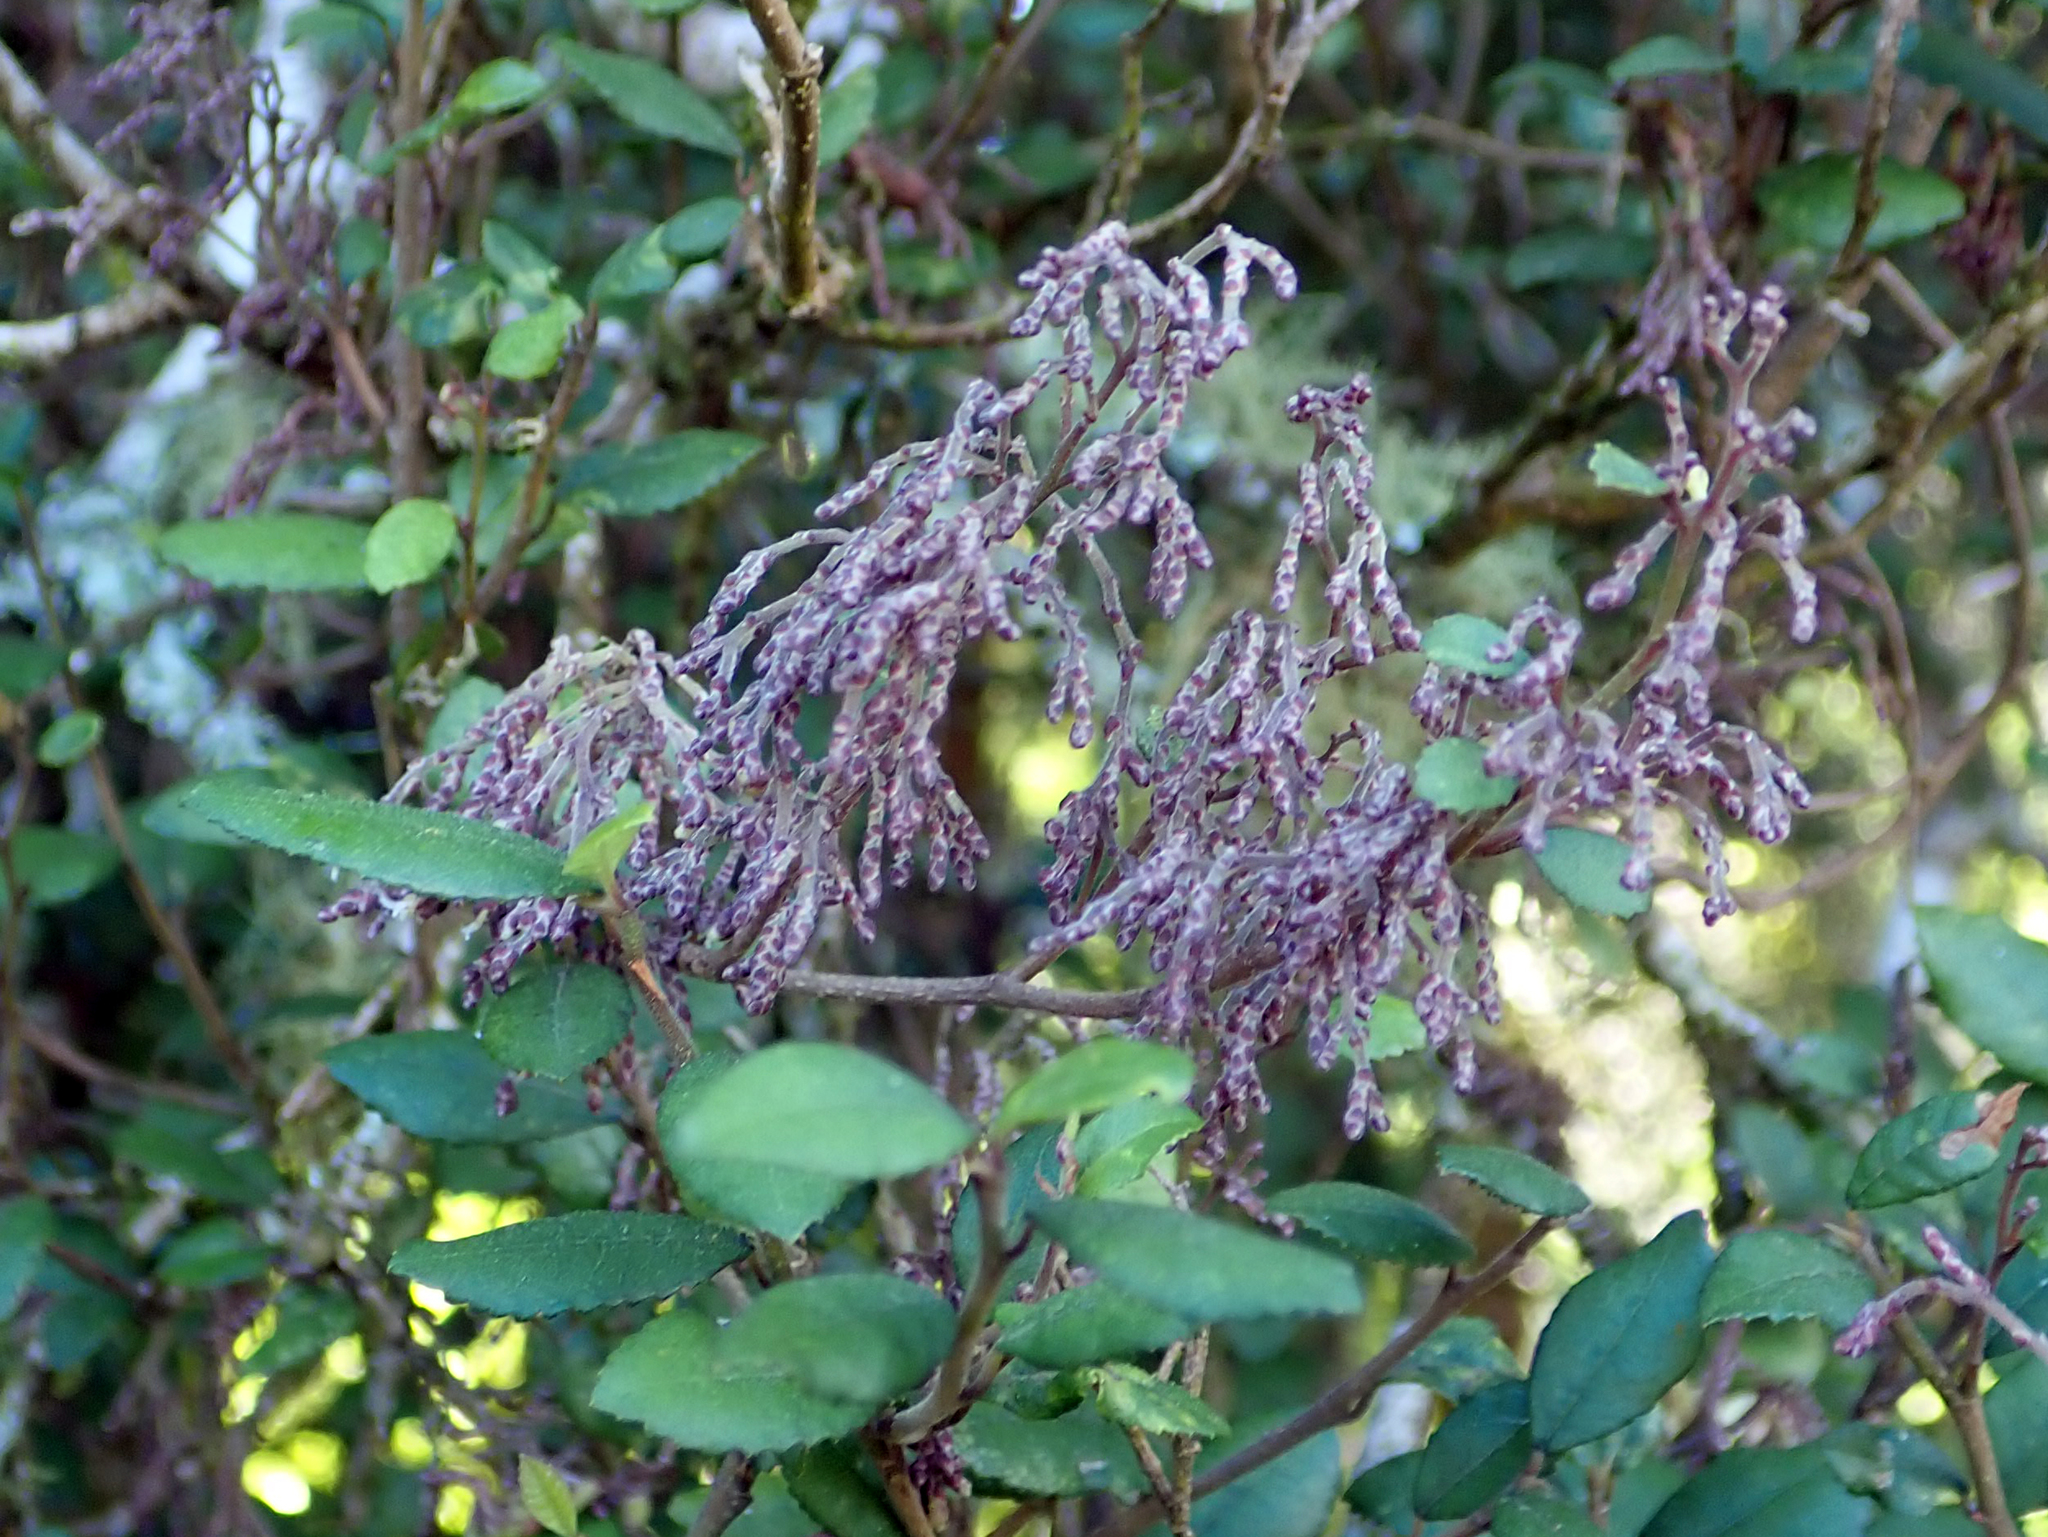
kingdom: Animalia
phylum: Arthropoda
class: Arachnida
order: Trombidiformes
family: Eriophyidae
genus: Eriophyes
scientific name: Eriophyes
